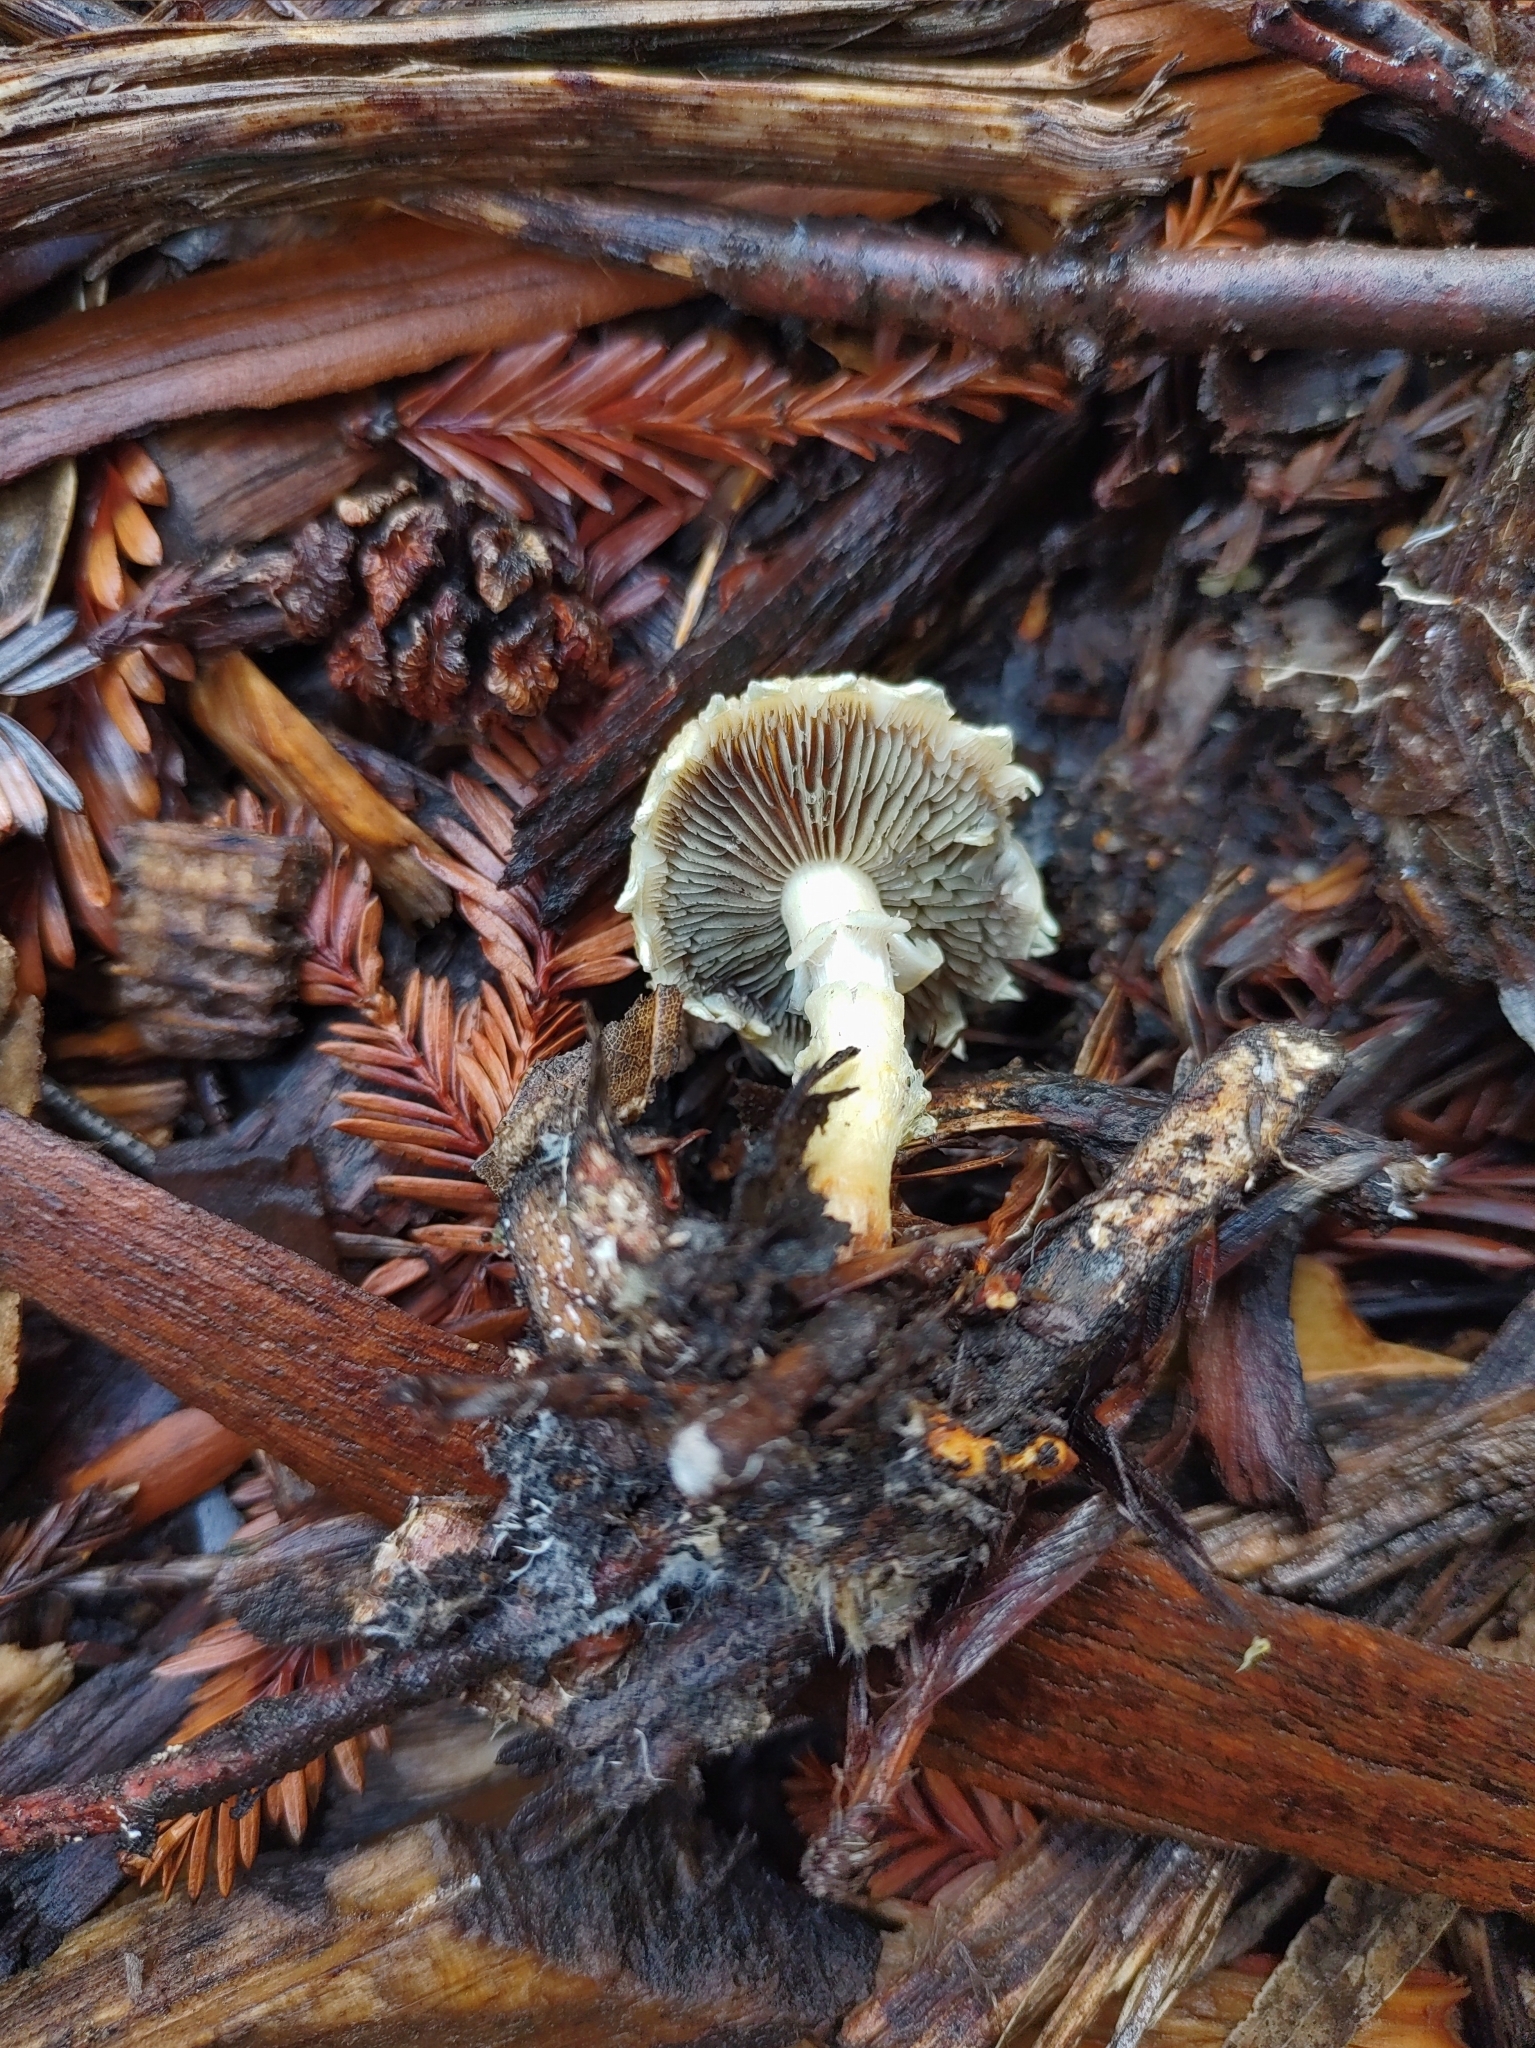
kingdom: Fungi
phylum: Basidiomycota
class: Agaricomycetes
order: Agaricales
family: Strophariaceae
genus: Leratiomyces
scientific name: Leratiomyces percevalii
